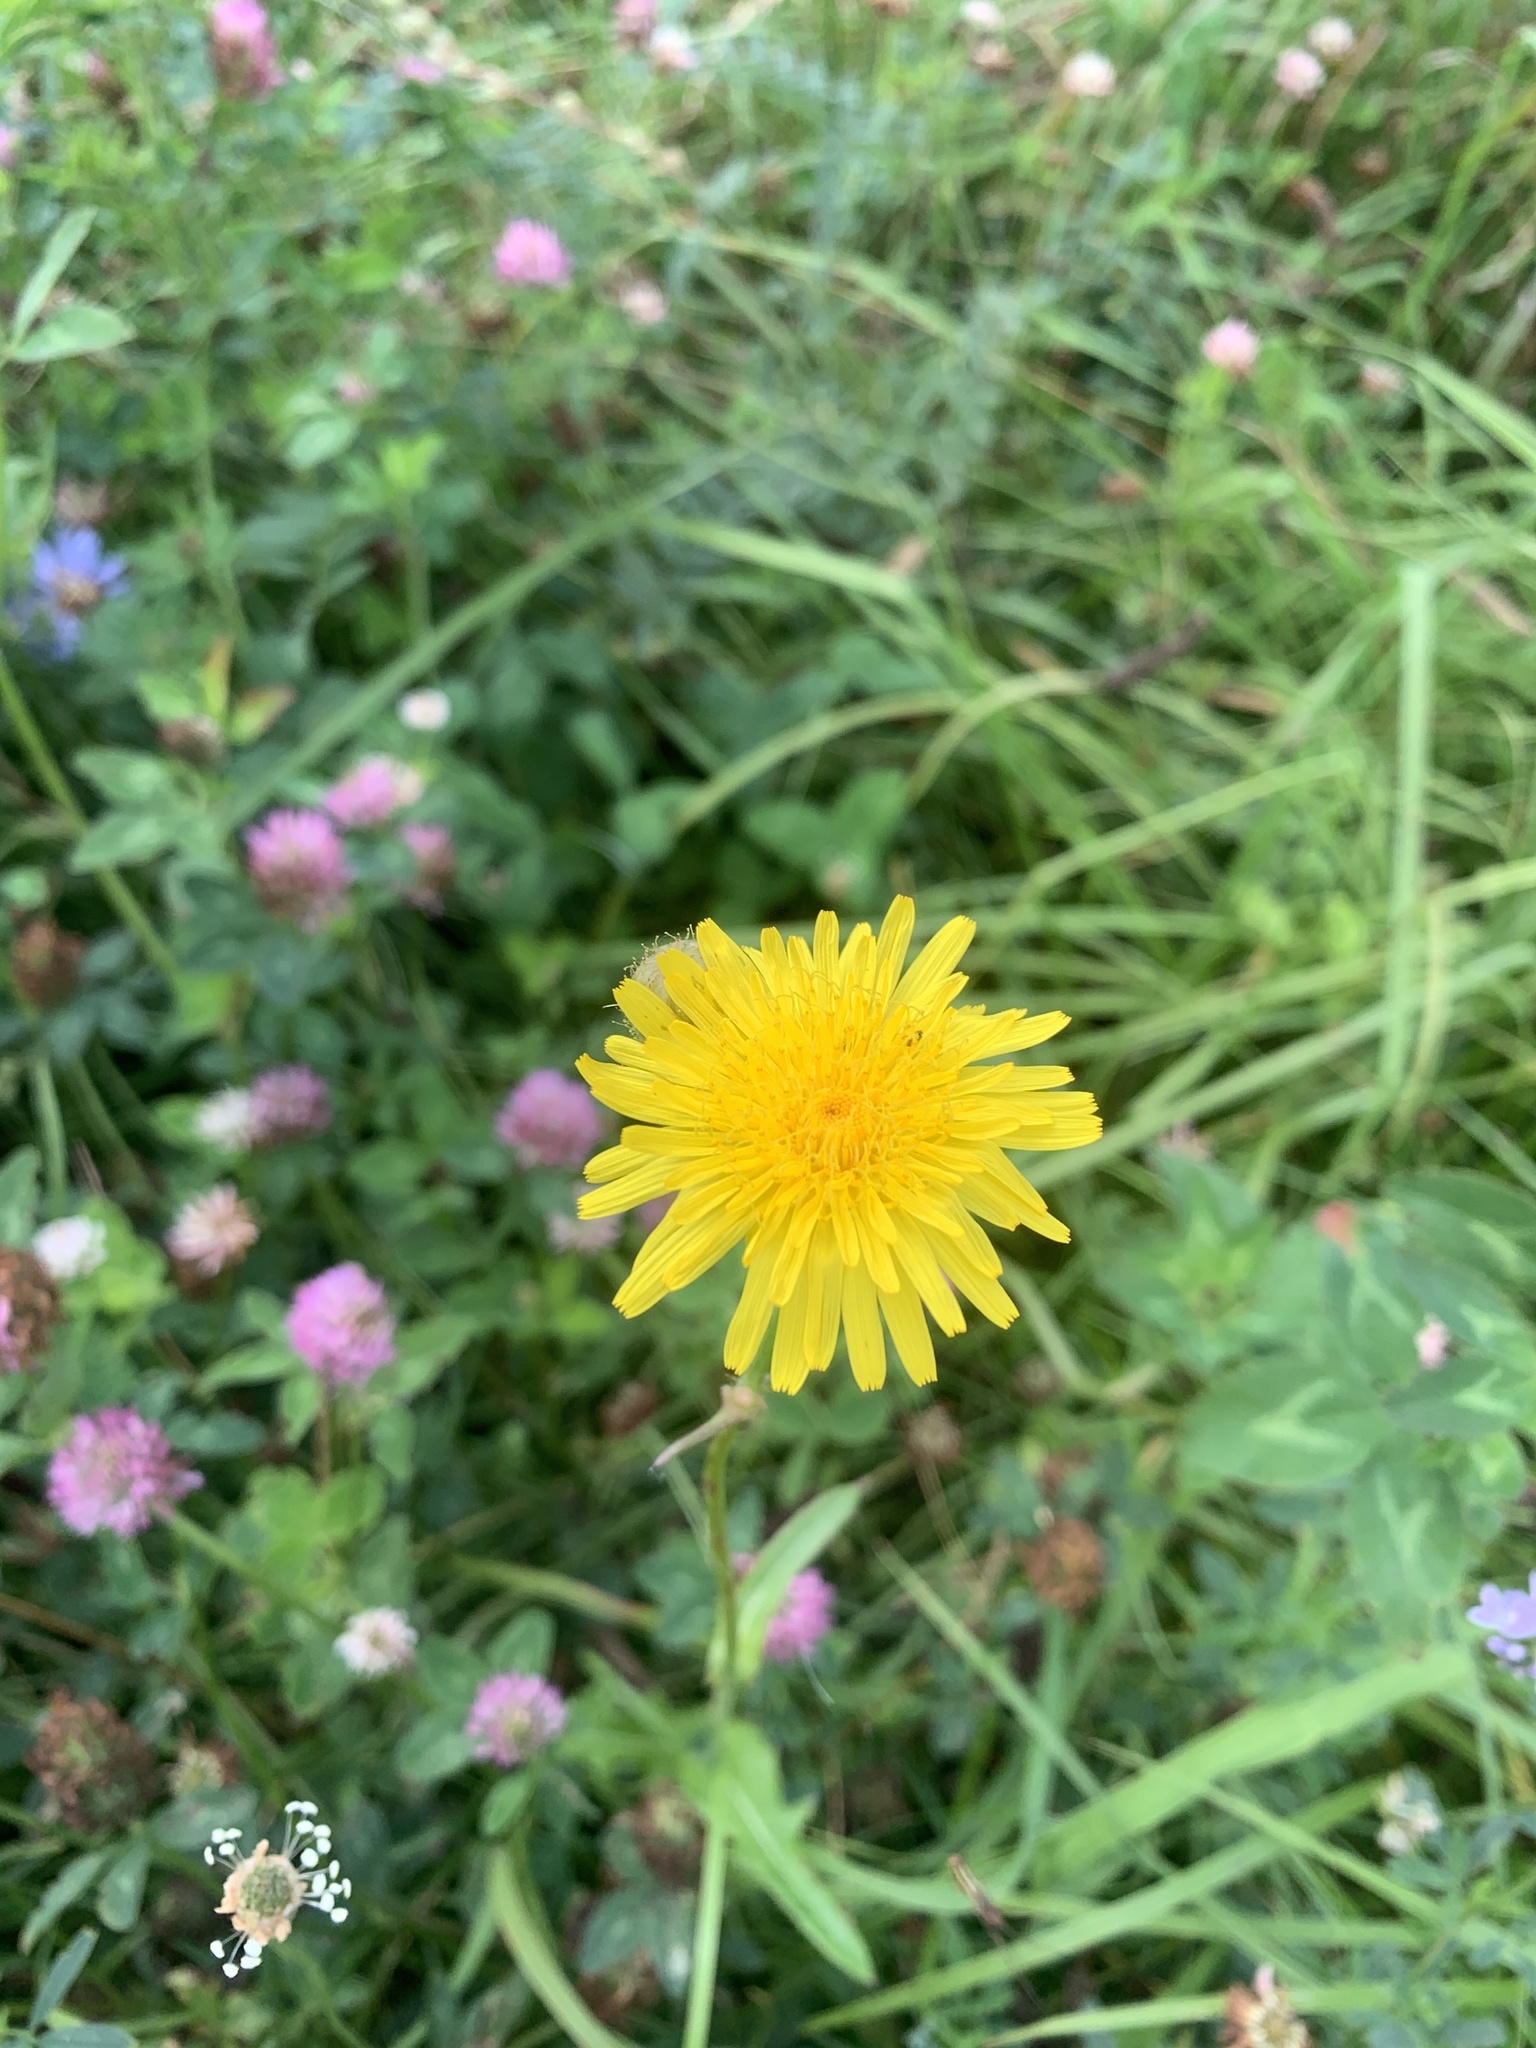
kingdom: Plantae
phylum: Tracheophyta
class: Magnoliopsida
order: Asterales
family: Asteraceae
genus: Taraxacum
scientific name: Taraxacum officinale
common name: Common dandelion
